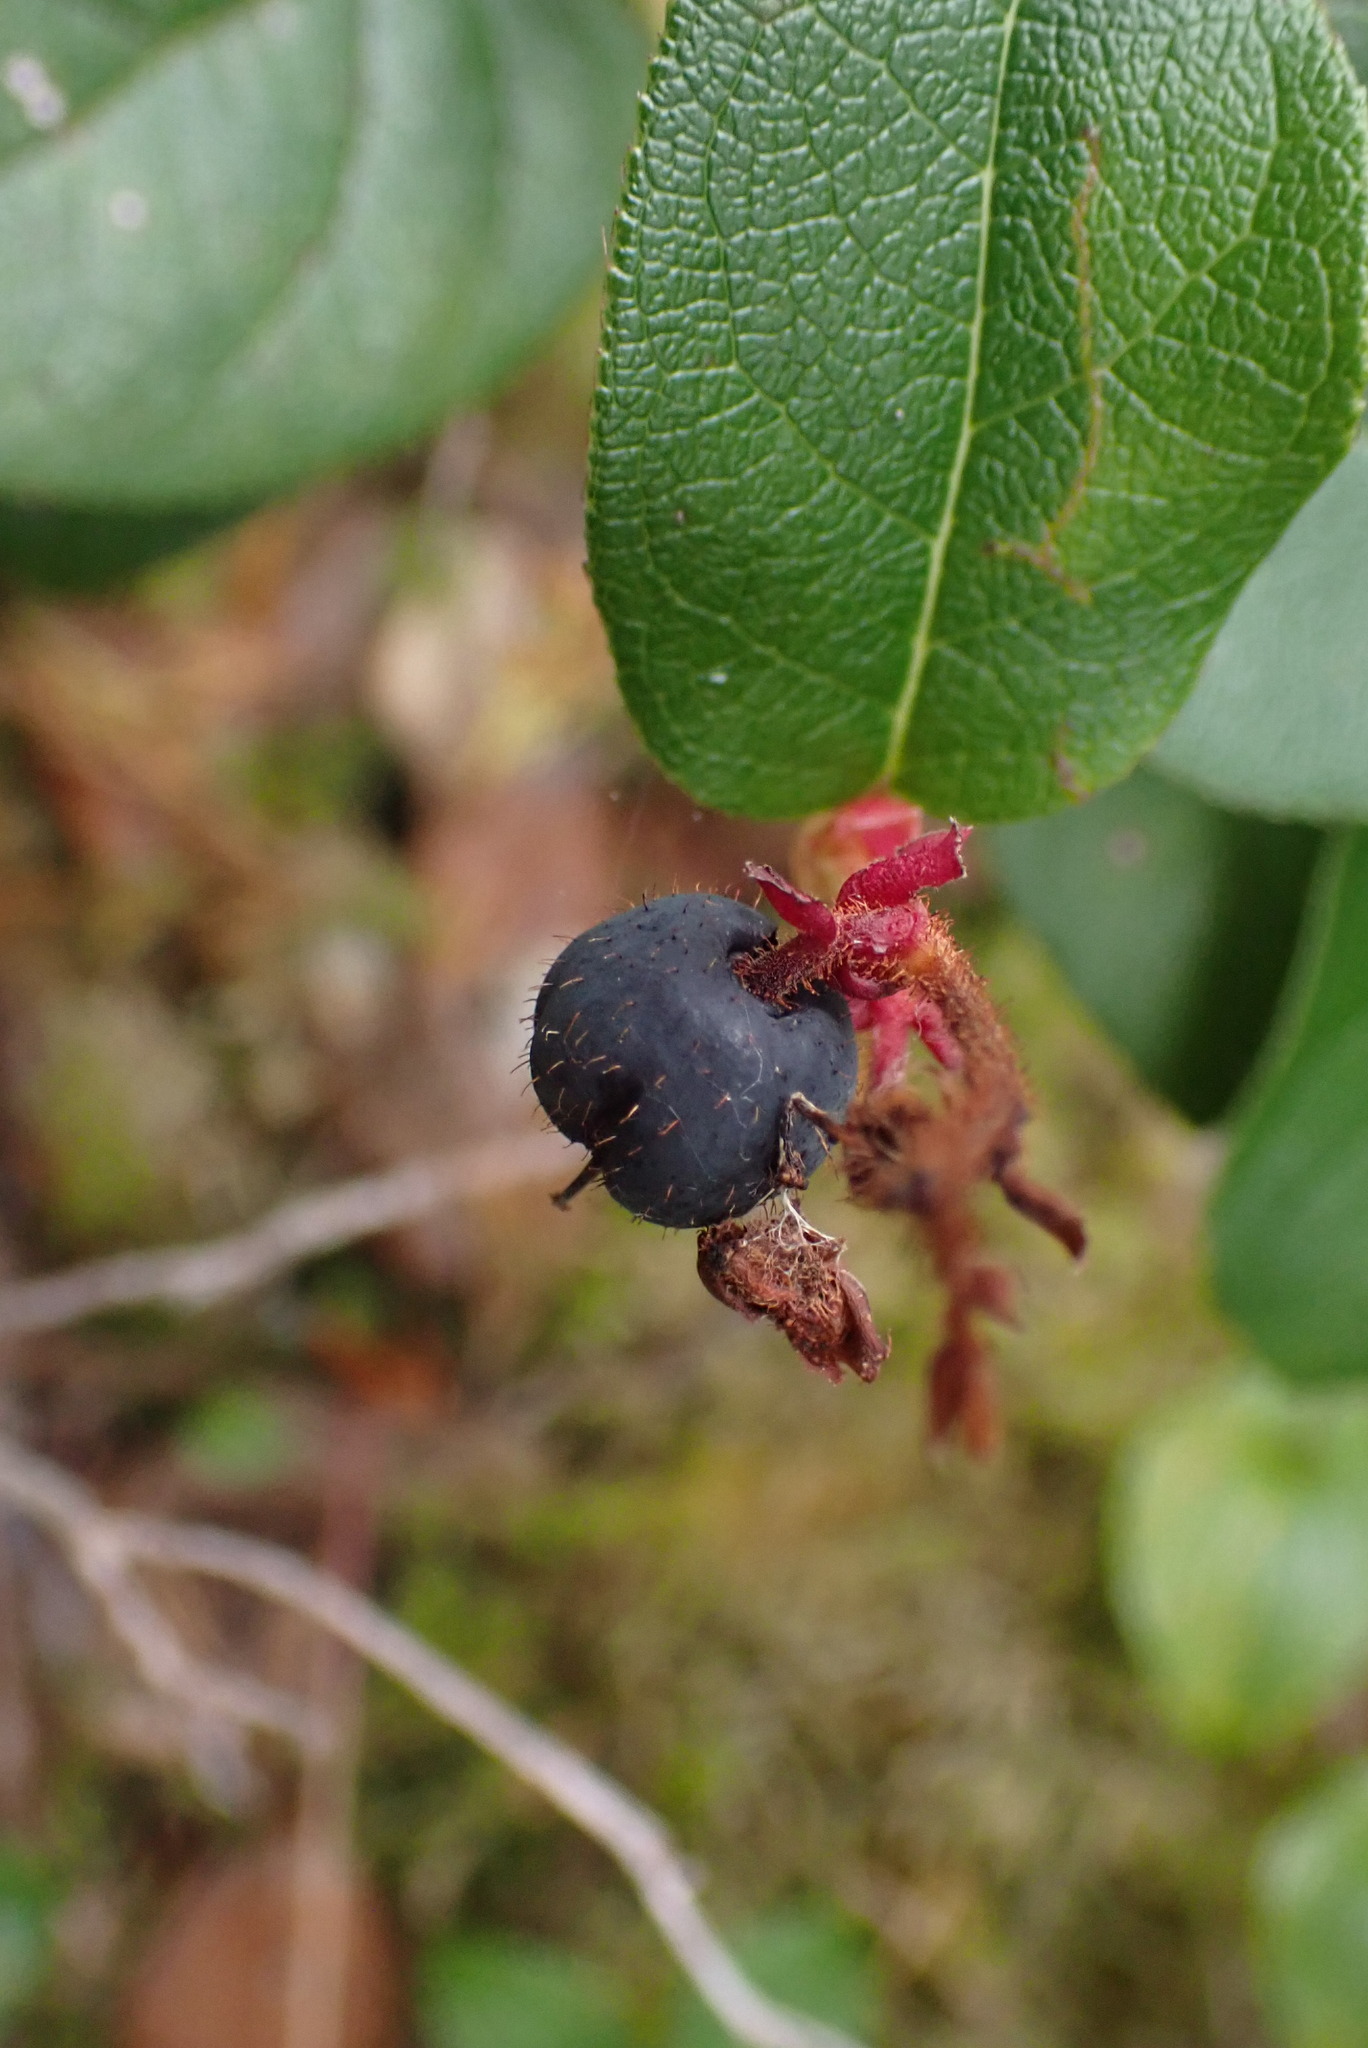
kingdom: Plantae
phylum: Tracheophyta
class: Magnoliopsida
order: Ericales
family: Ericaceae
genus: Gaultheria
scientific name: Gaultheria shallon
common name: Shallon
